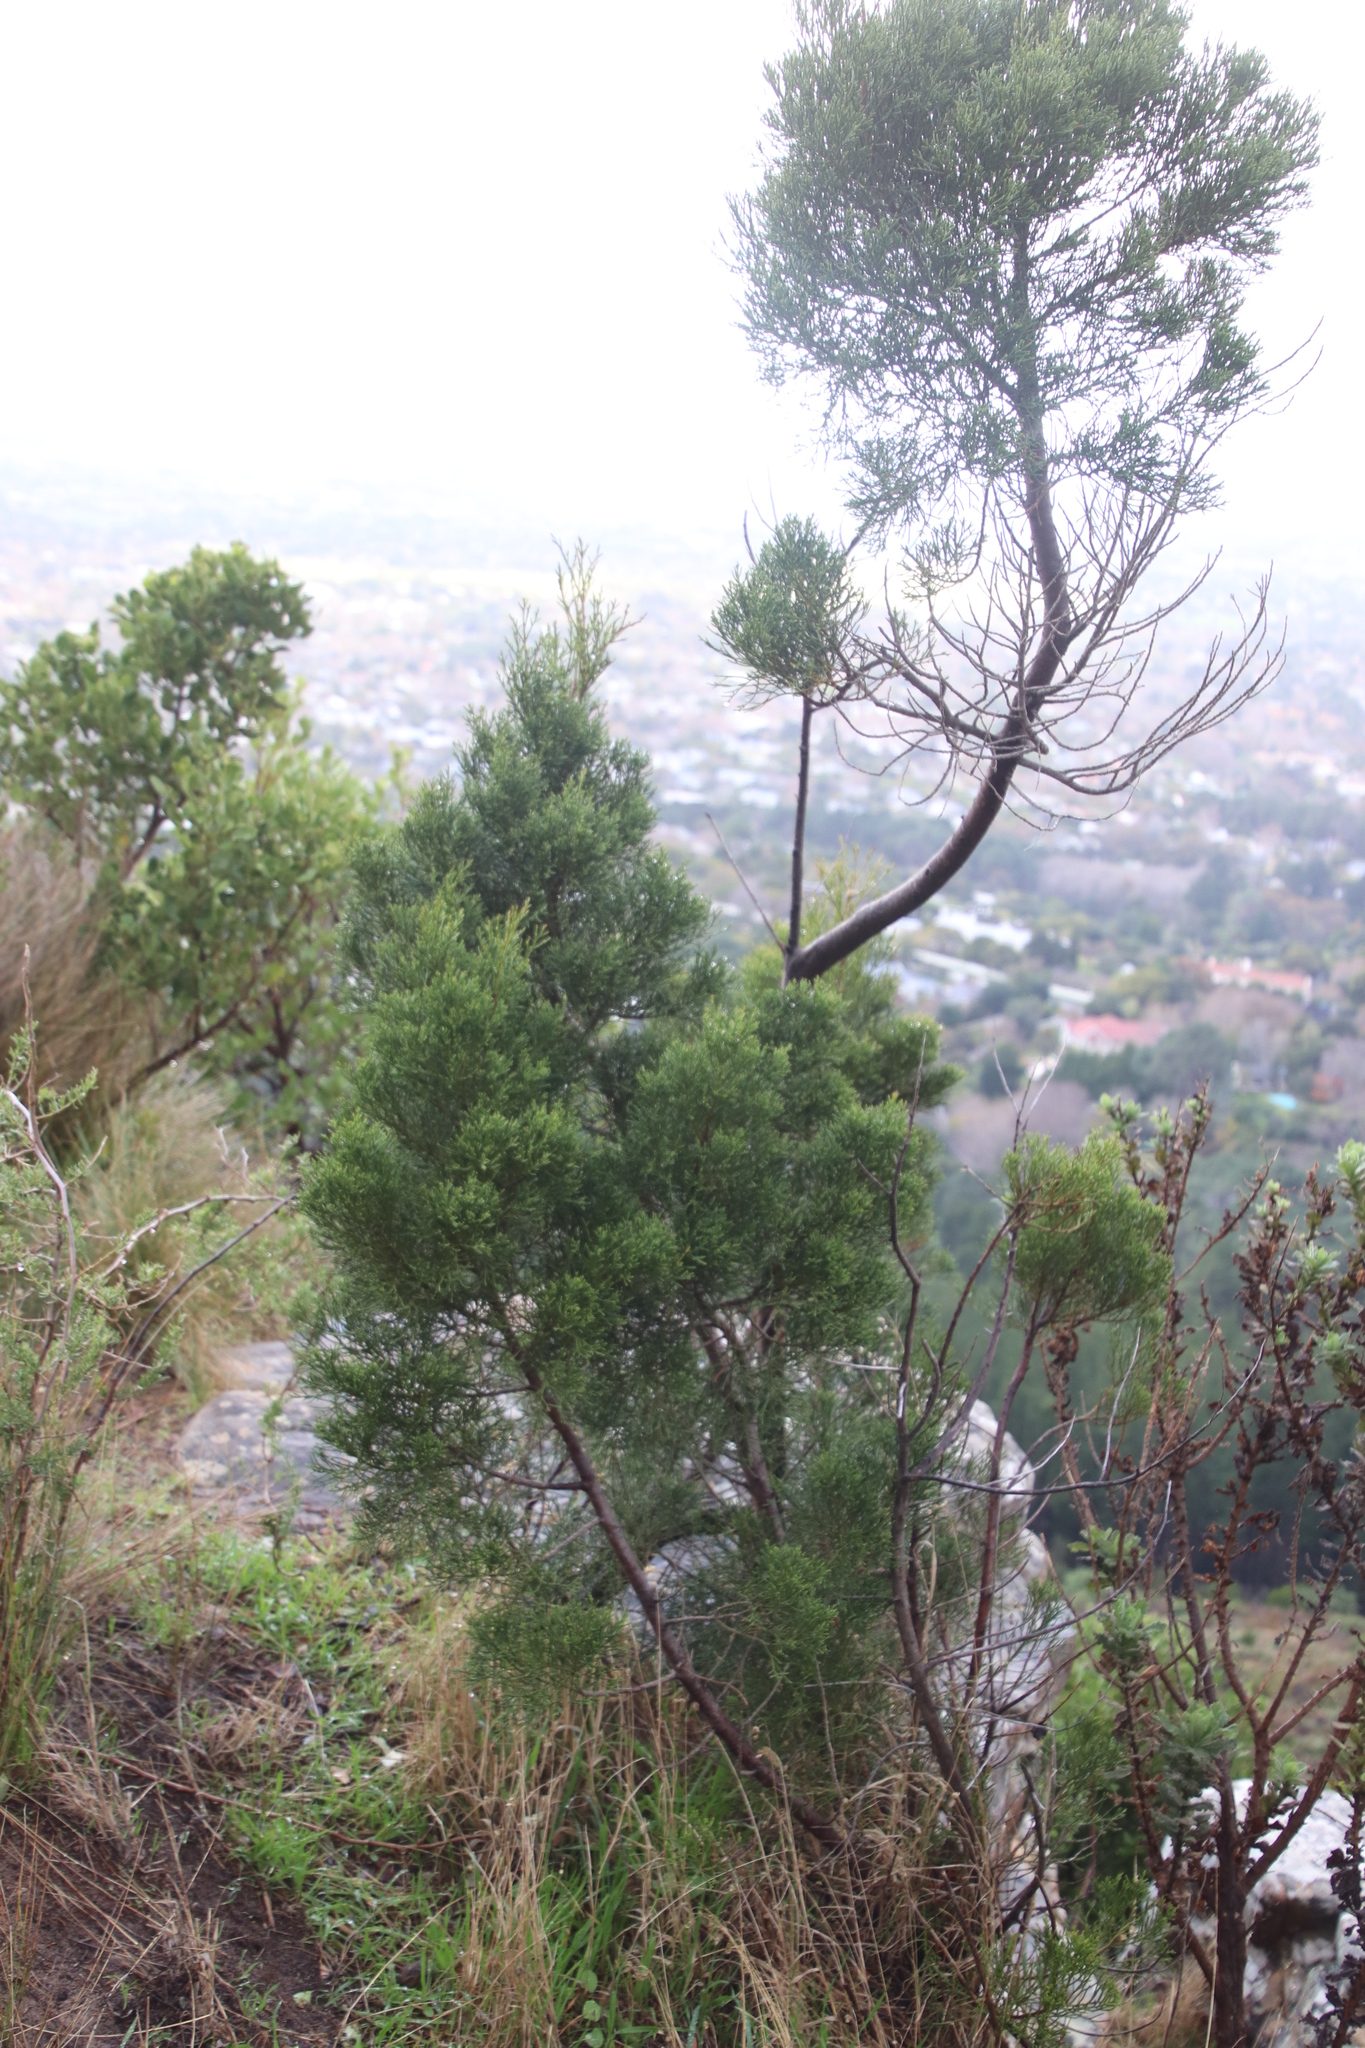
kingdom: Plantae
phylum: Tracheophyta
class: Pinopsida
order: Pinales
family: Cupressaceae
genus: Widdringtonia
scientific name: Widdringtonia nodiflora
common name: Cape cypress
